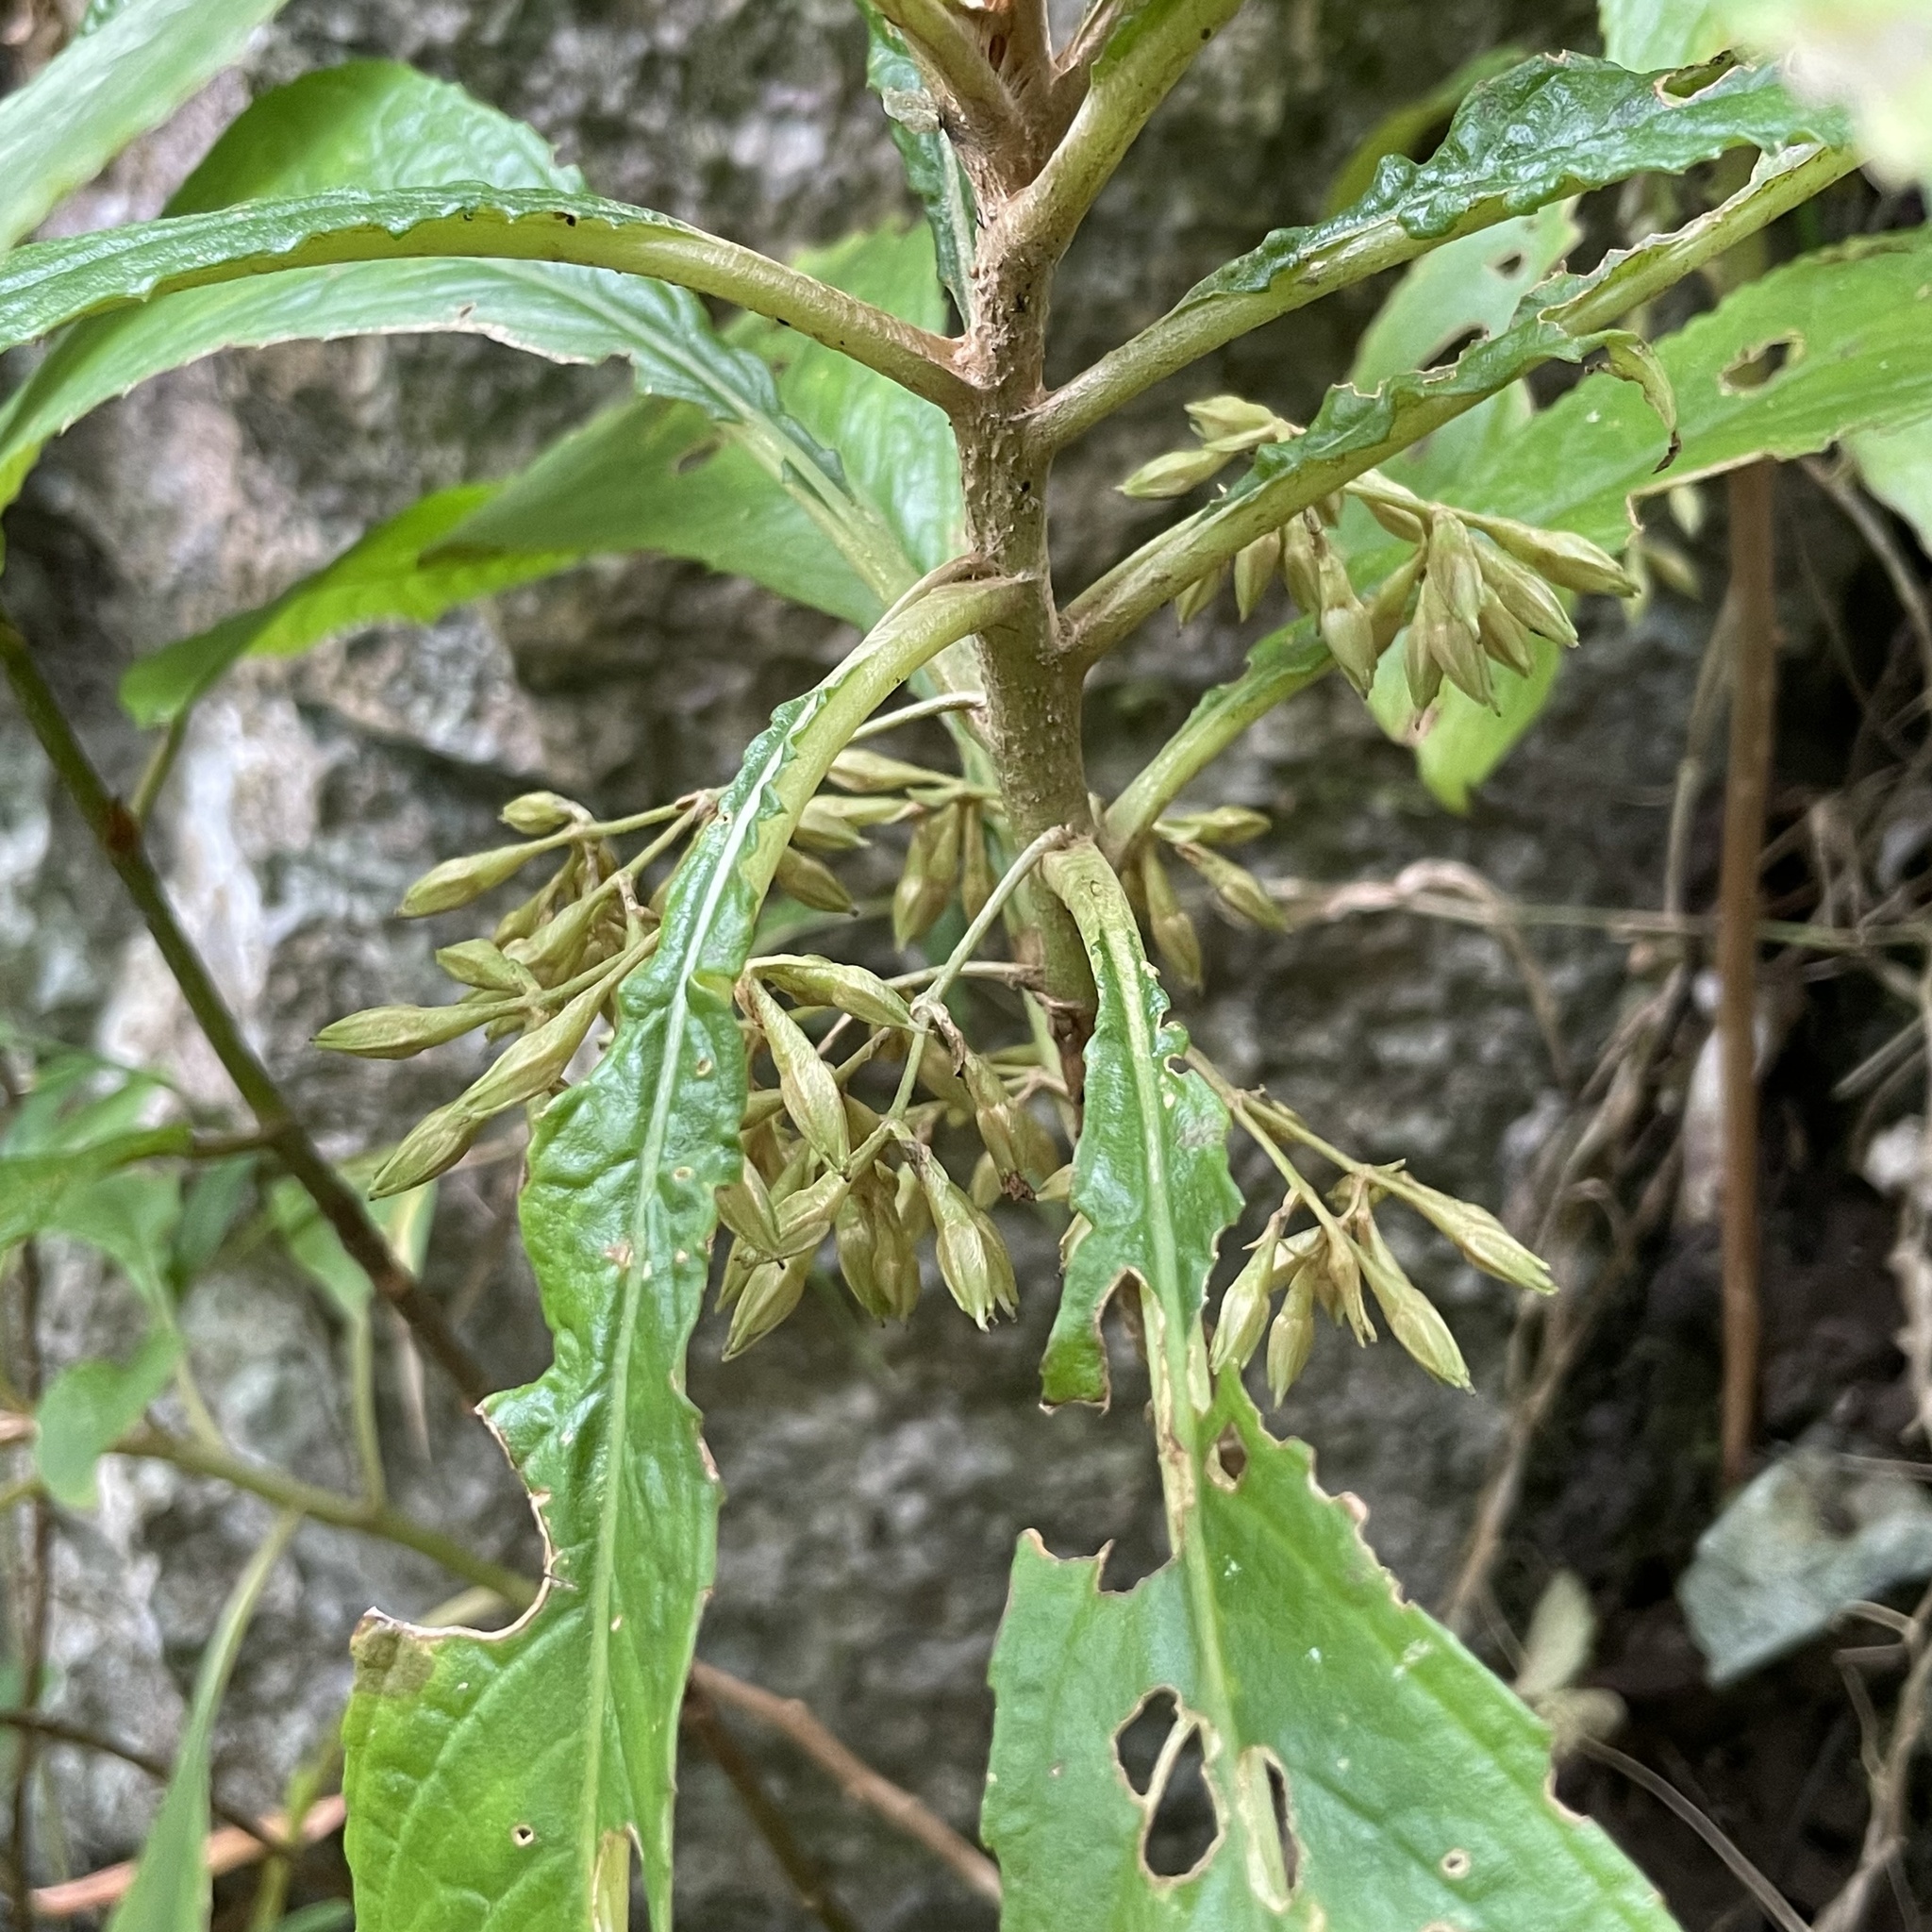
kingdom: Plantae
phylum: Tracheophyta
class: Magnoliopsida
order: Lamiales
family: Gesneriaceae
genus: Rhynchotechum
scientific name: Rhynchotechum discolor
